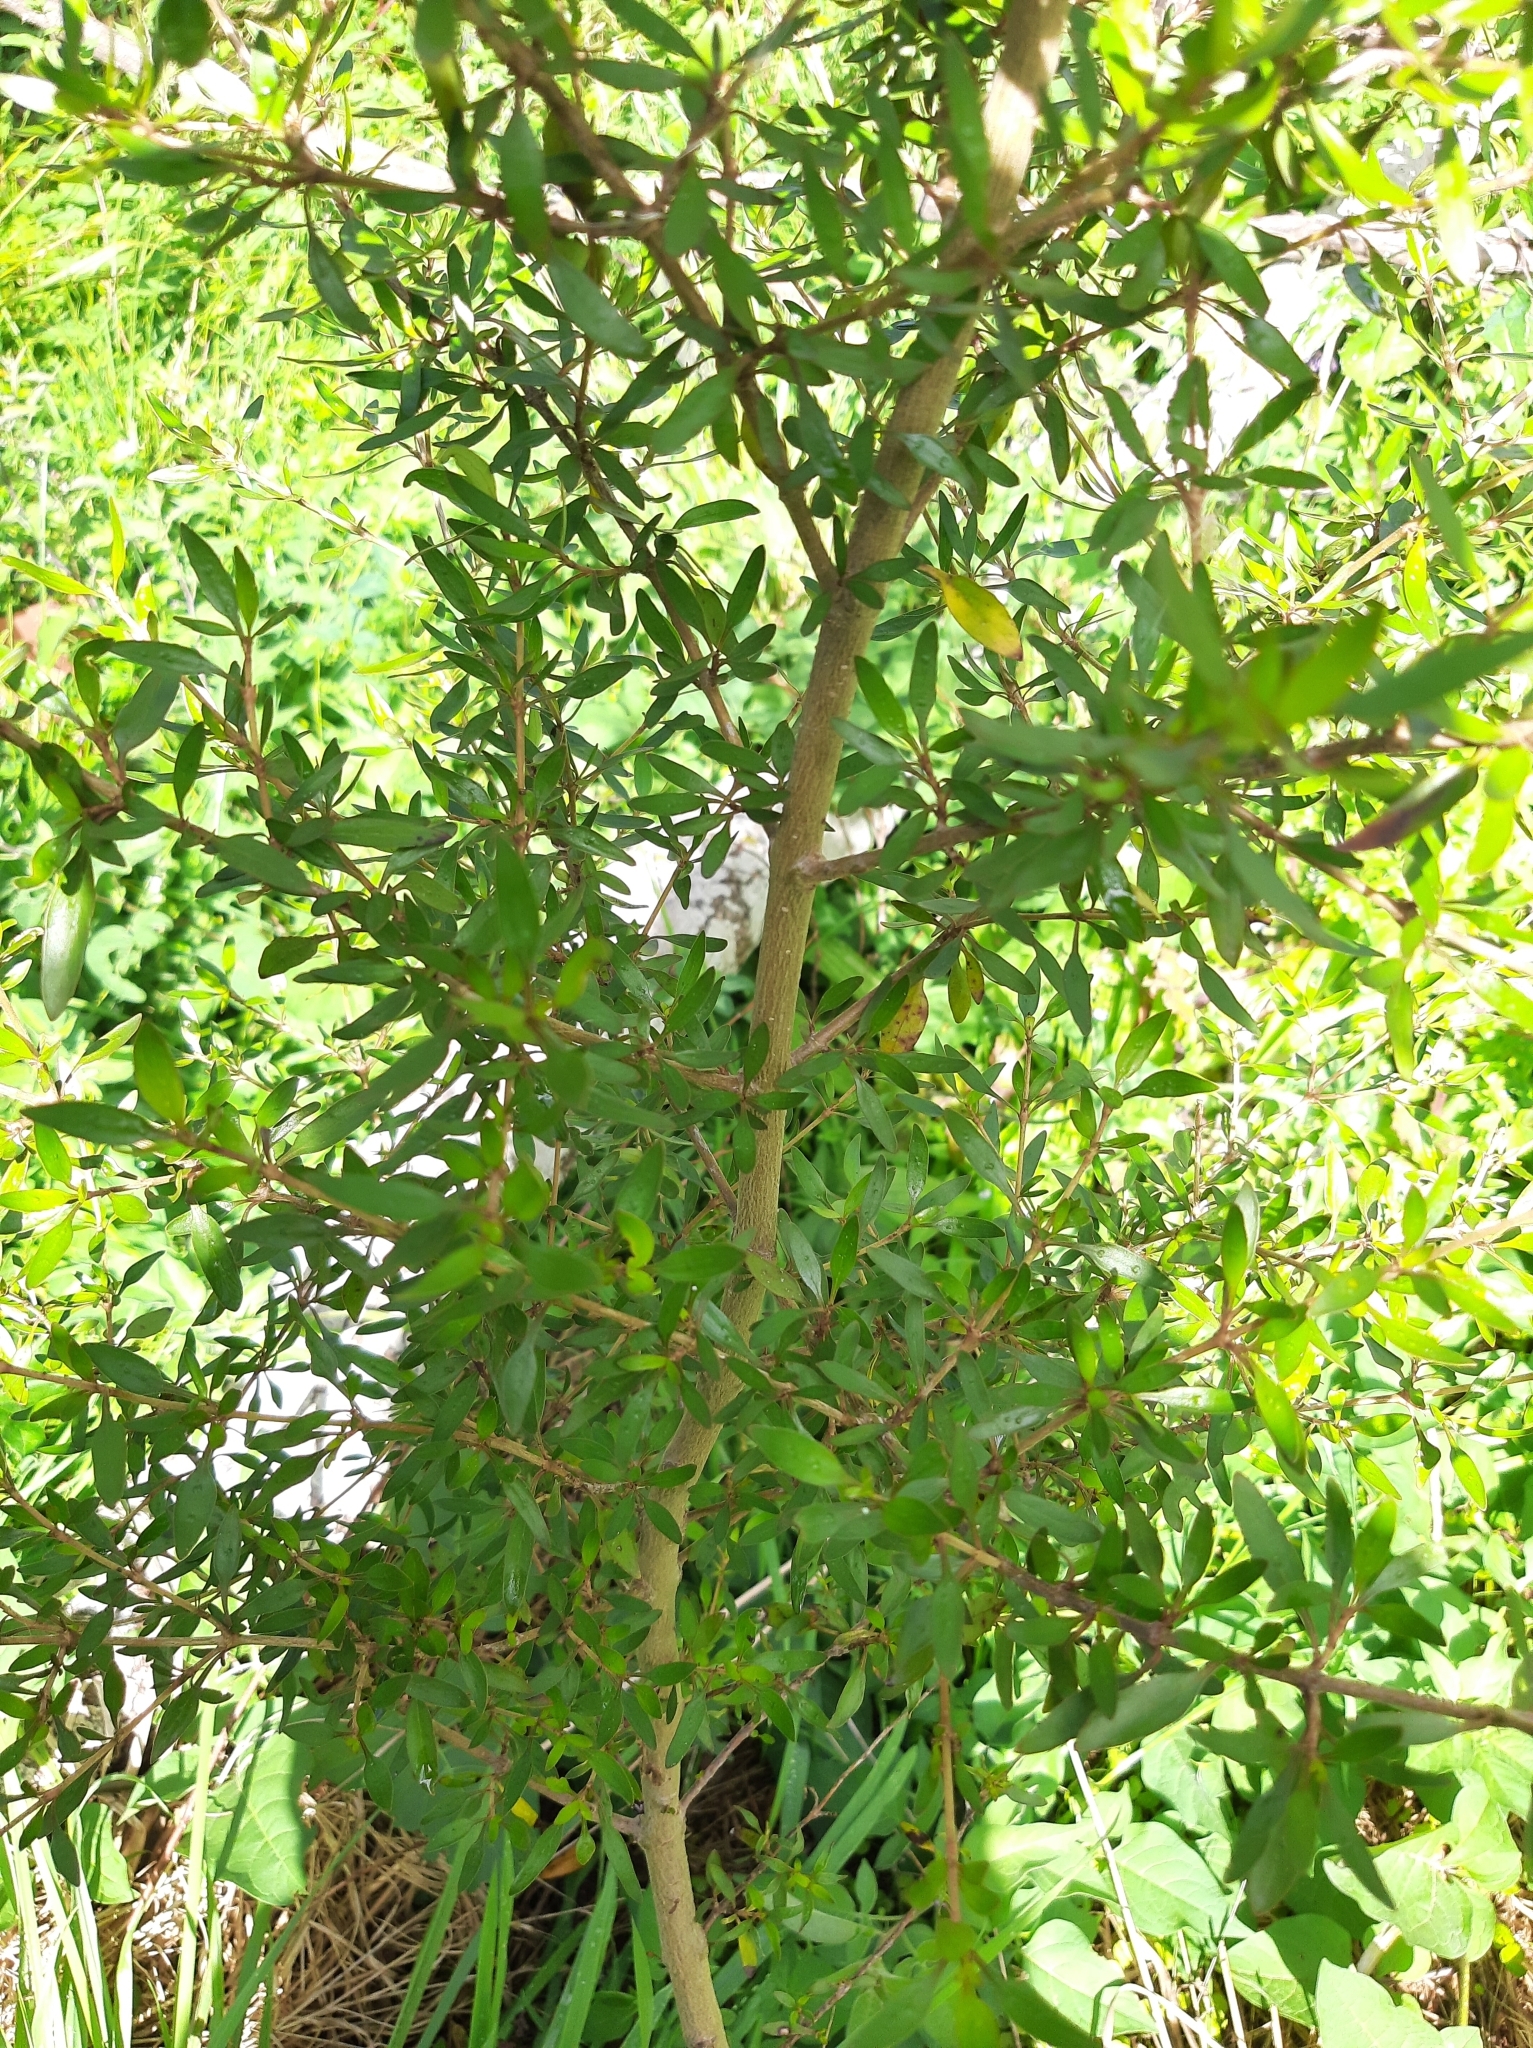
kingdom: Plantae
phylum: Tracheophyta
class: Magnoliopsida
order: Gentianales
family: Rubiaceae
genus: Coprosma
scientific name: Coprosma cunninghamii
